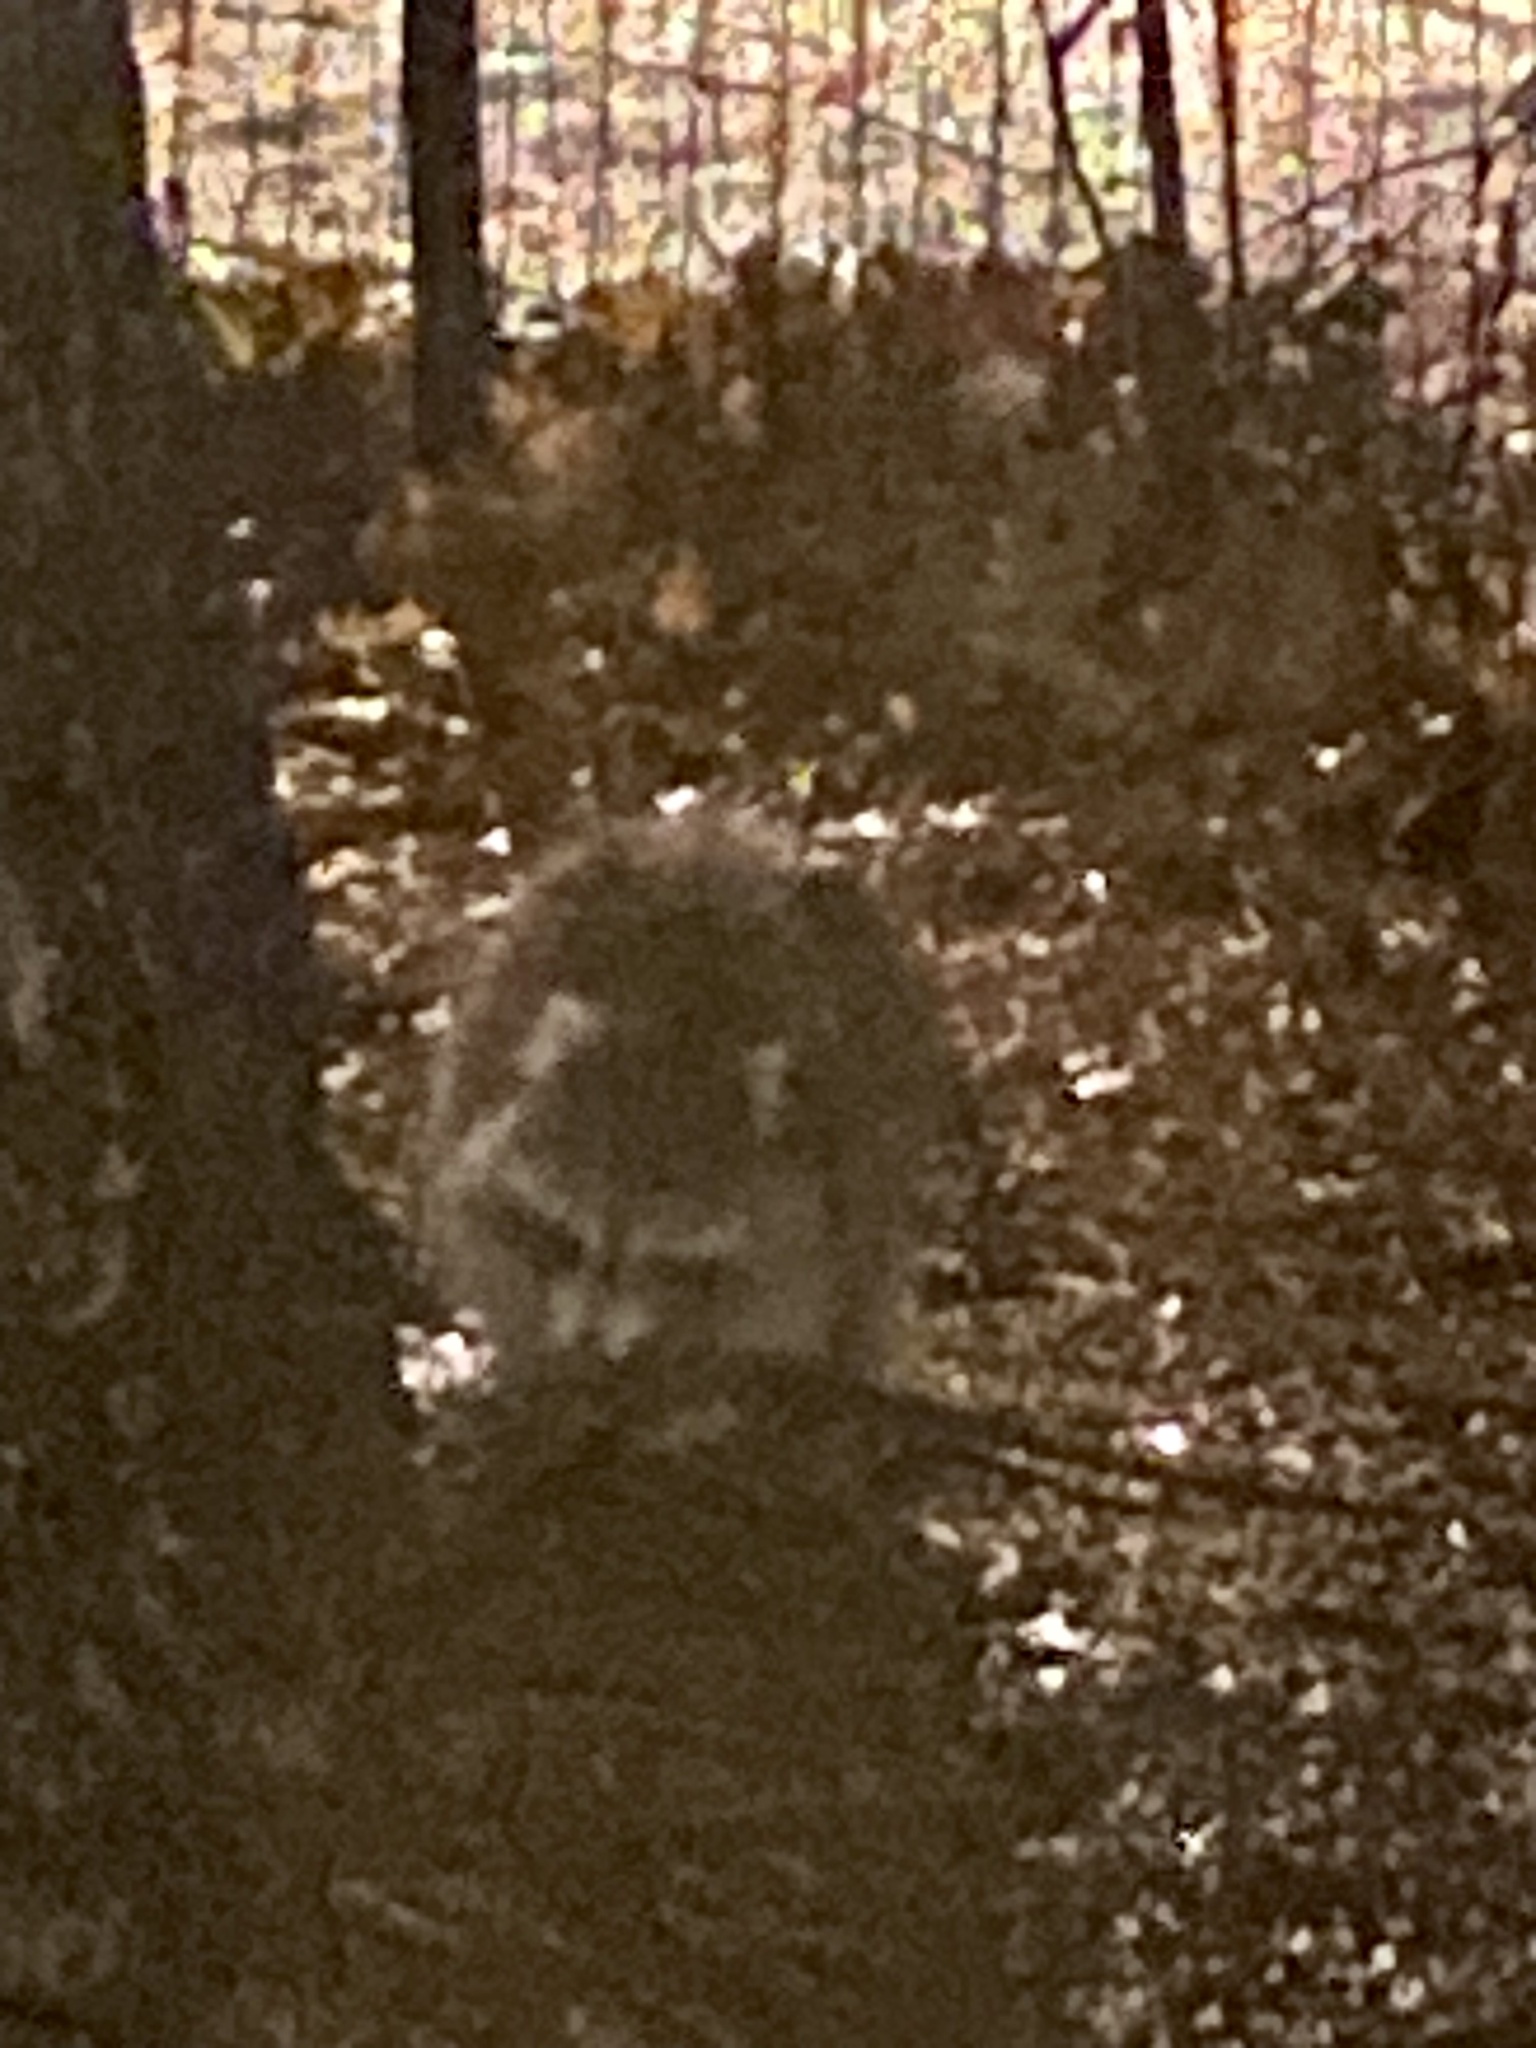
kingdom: Animalia
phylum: Chordata
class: Mammalia
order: Carnivora
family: Procyonidae
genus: Procyon
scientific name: Procyon lotor
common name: Raccoon
